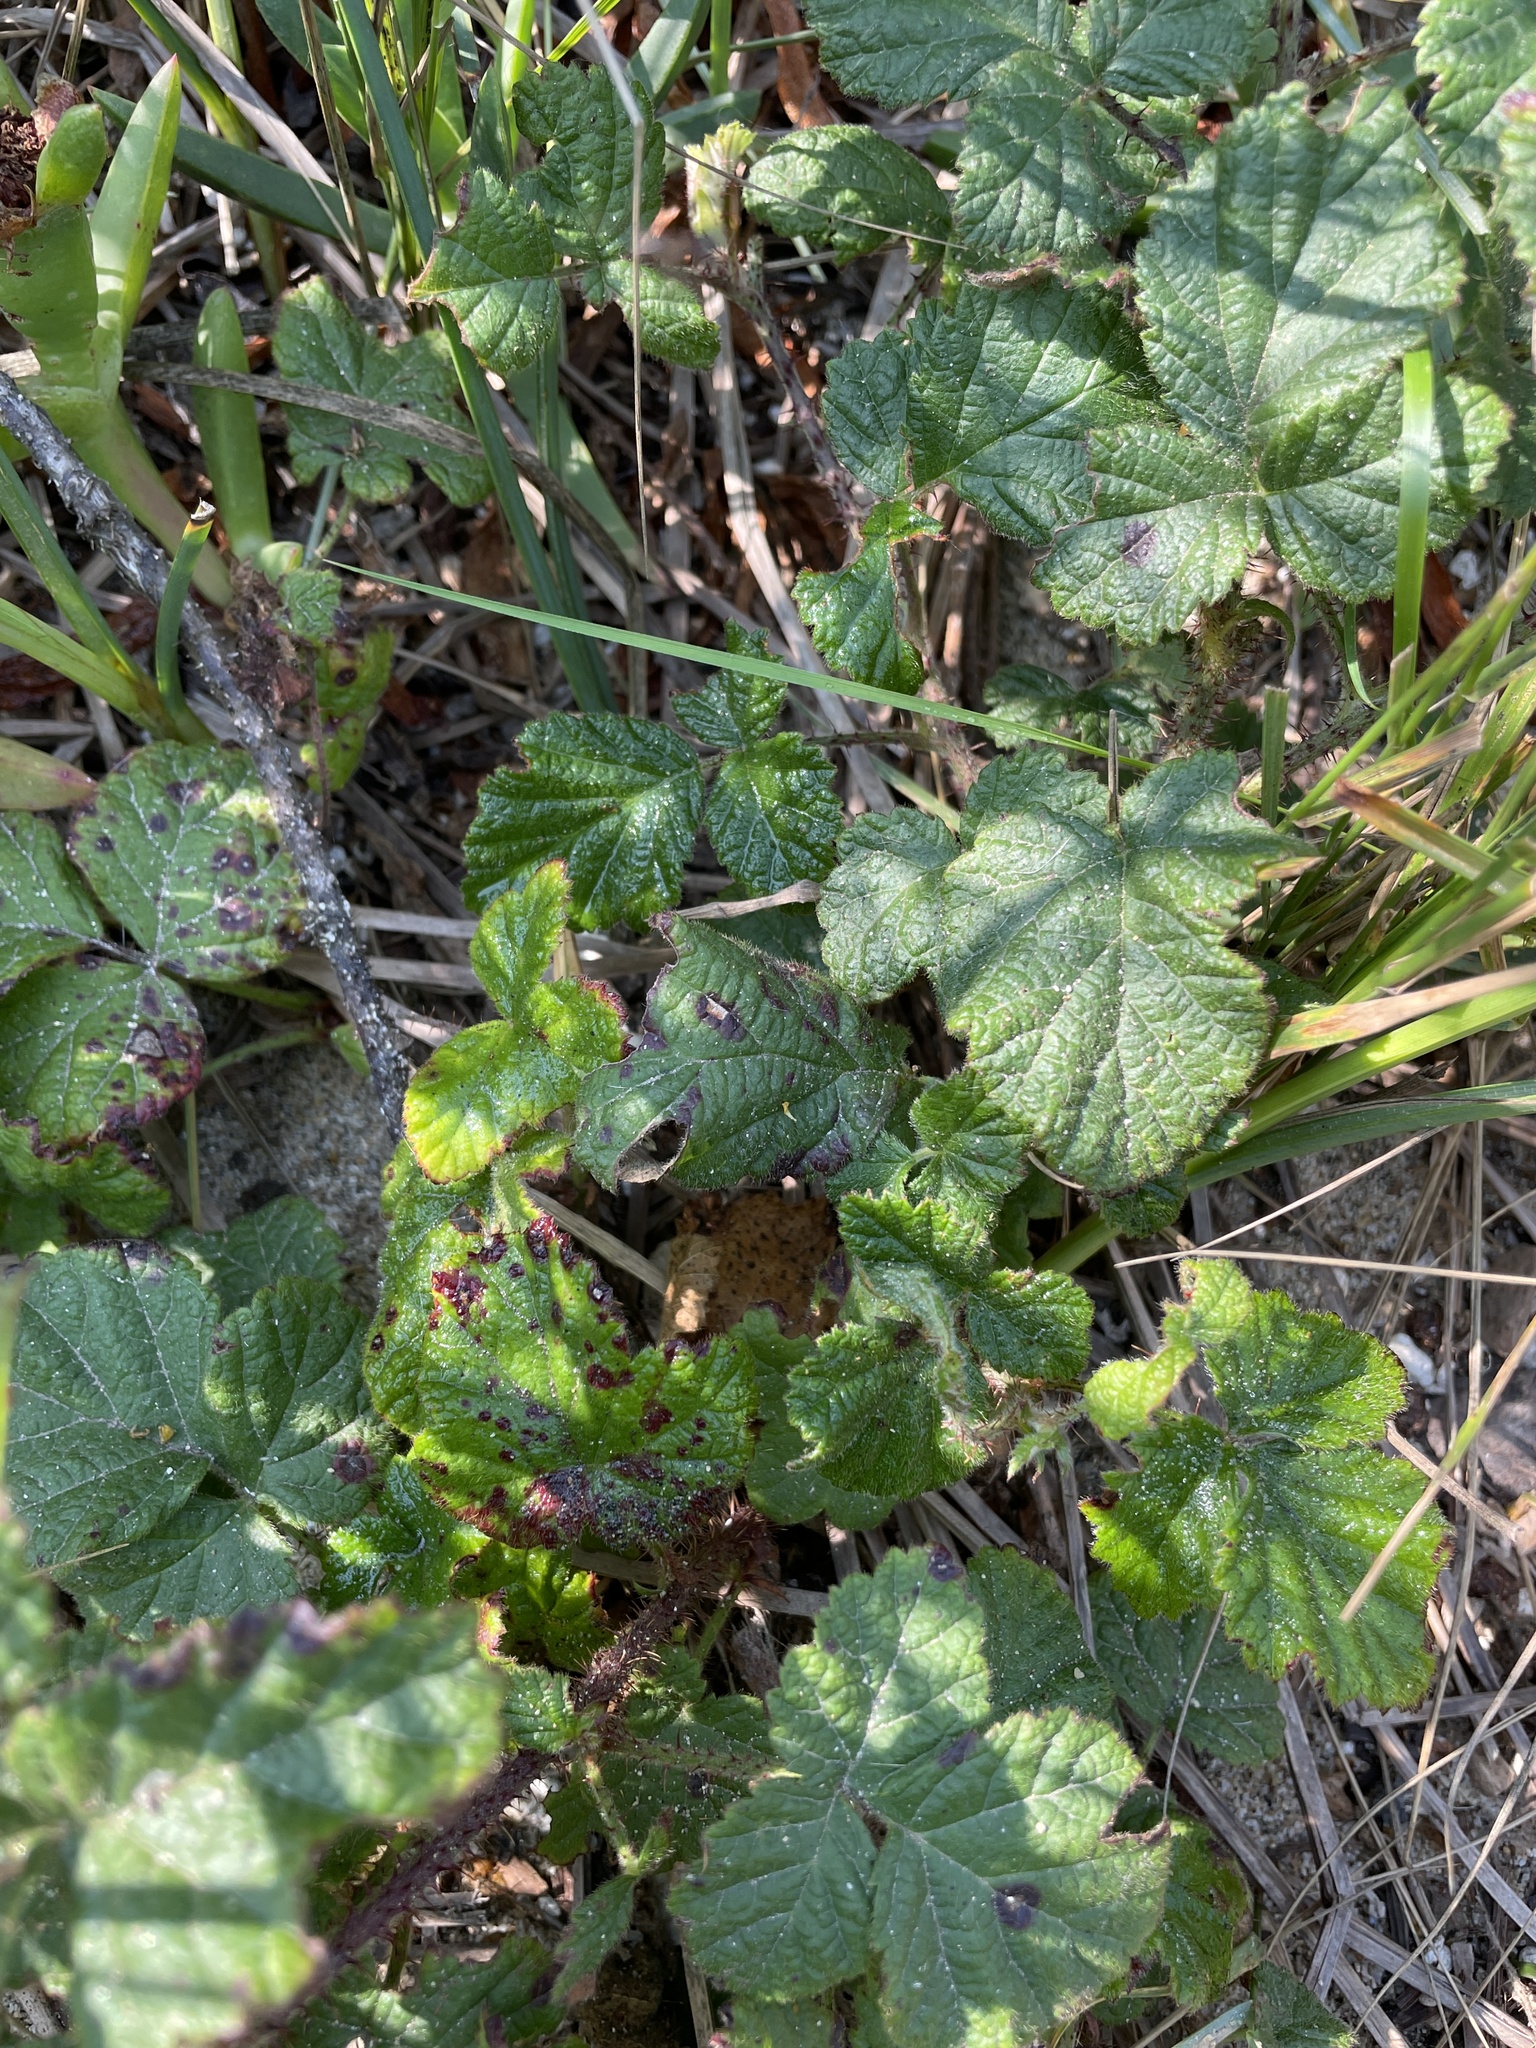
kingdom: Plantae
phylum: Tracheophyta
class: Magnoliopsida
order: Rosales
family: Rosaceae
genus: Rubus
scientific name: Rubus ursinus
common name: Pacific blackberry
